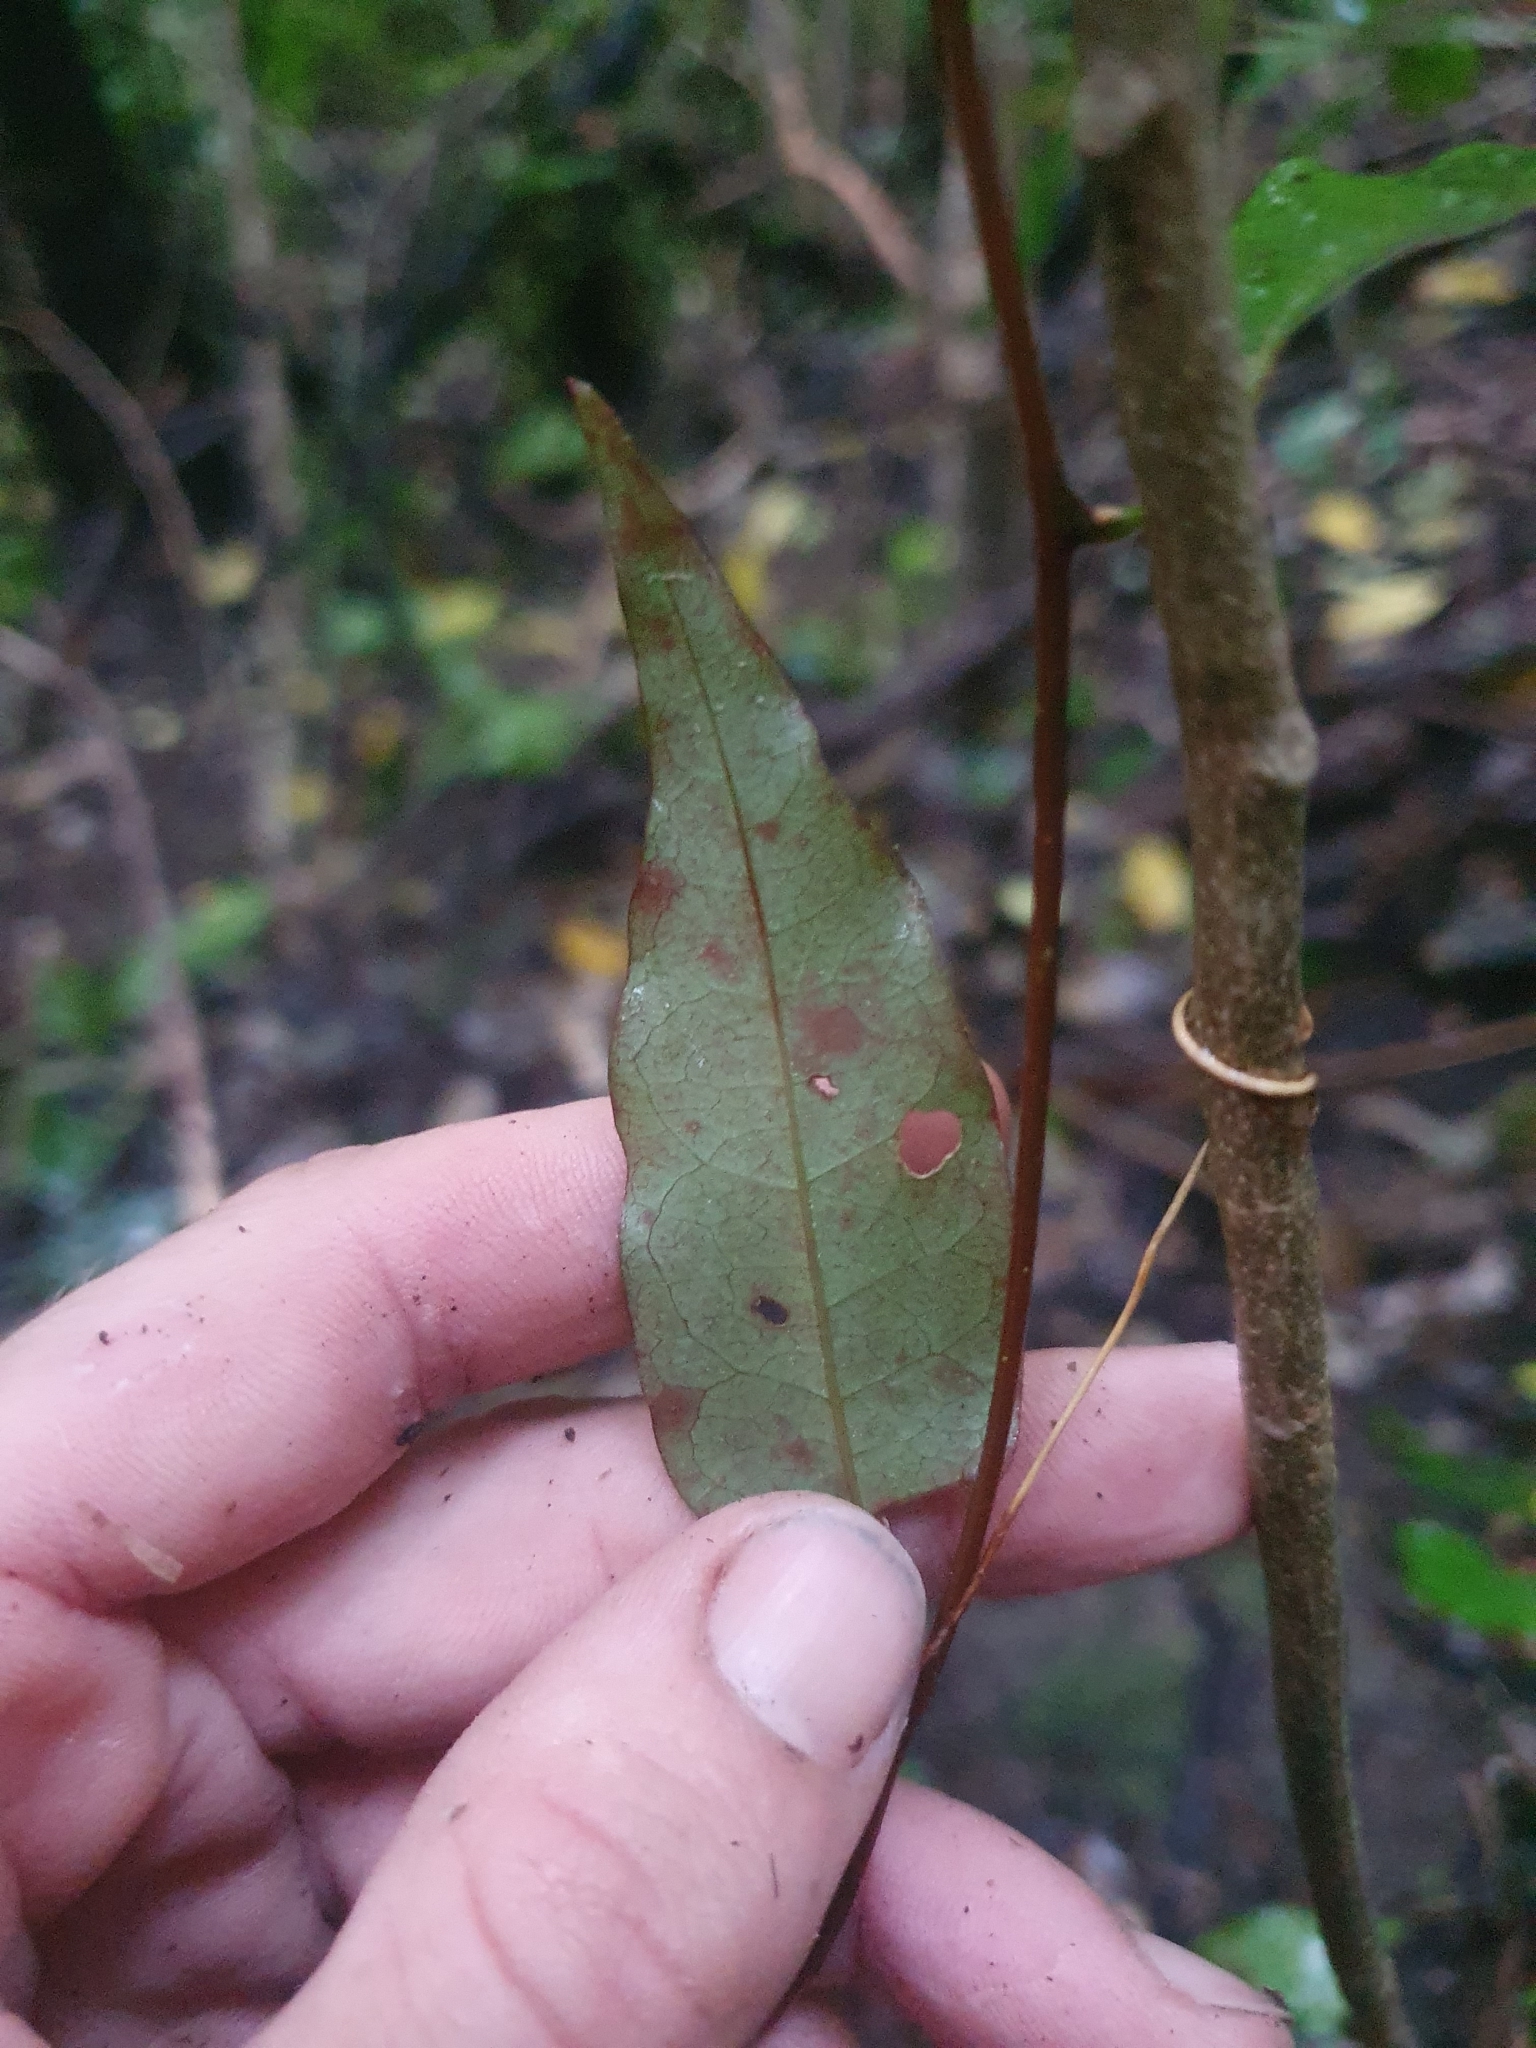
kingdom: Plantae
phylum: Tracheophyta
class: Magnoliopsida
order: Malpighiales
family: Passifloraceae
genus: Passiflora
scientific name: Passiflora tetrandra
